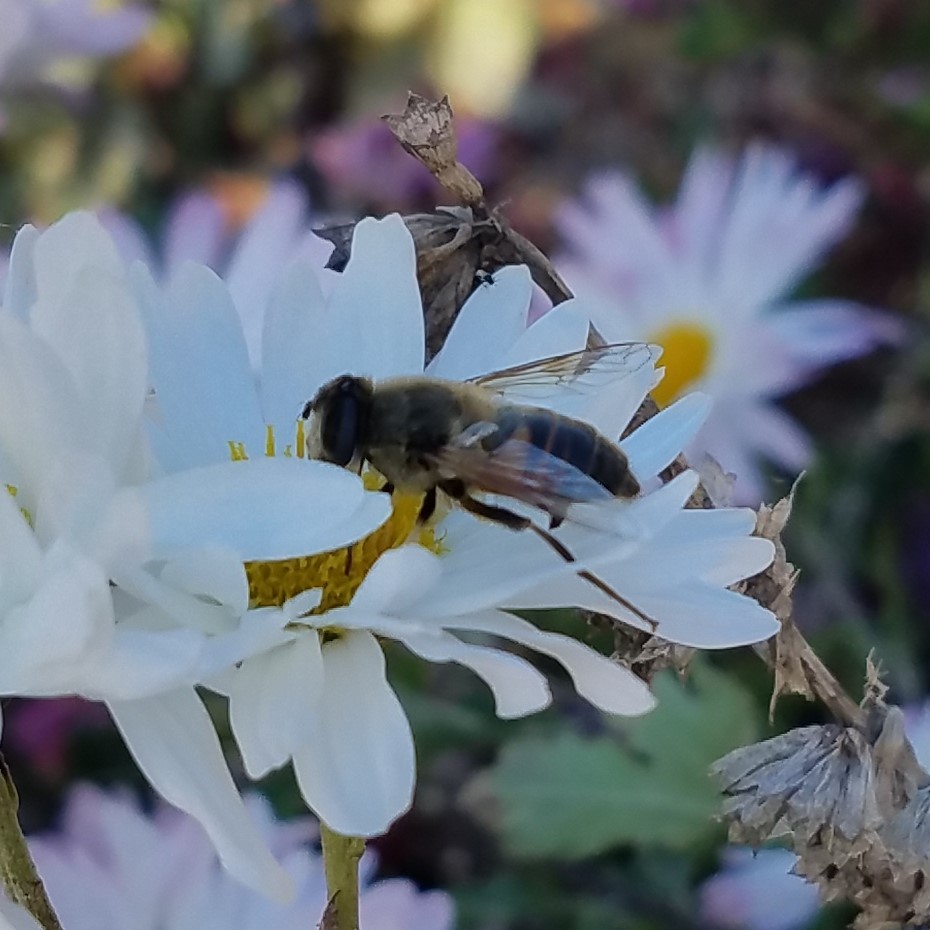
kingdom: Animalia
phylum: Arthropoda
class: Insecta
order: Diptera
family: Syrphidae
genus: Eristalis
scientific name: Eristalis tenax
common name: Drone fly
